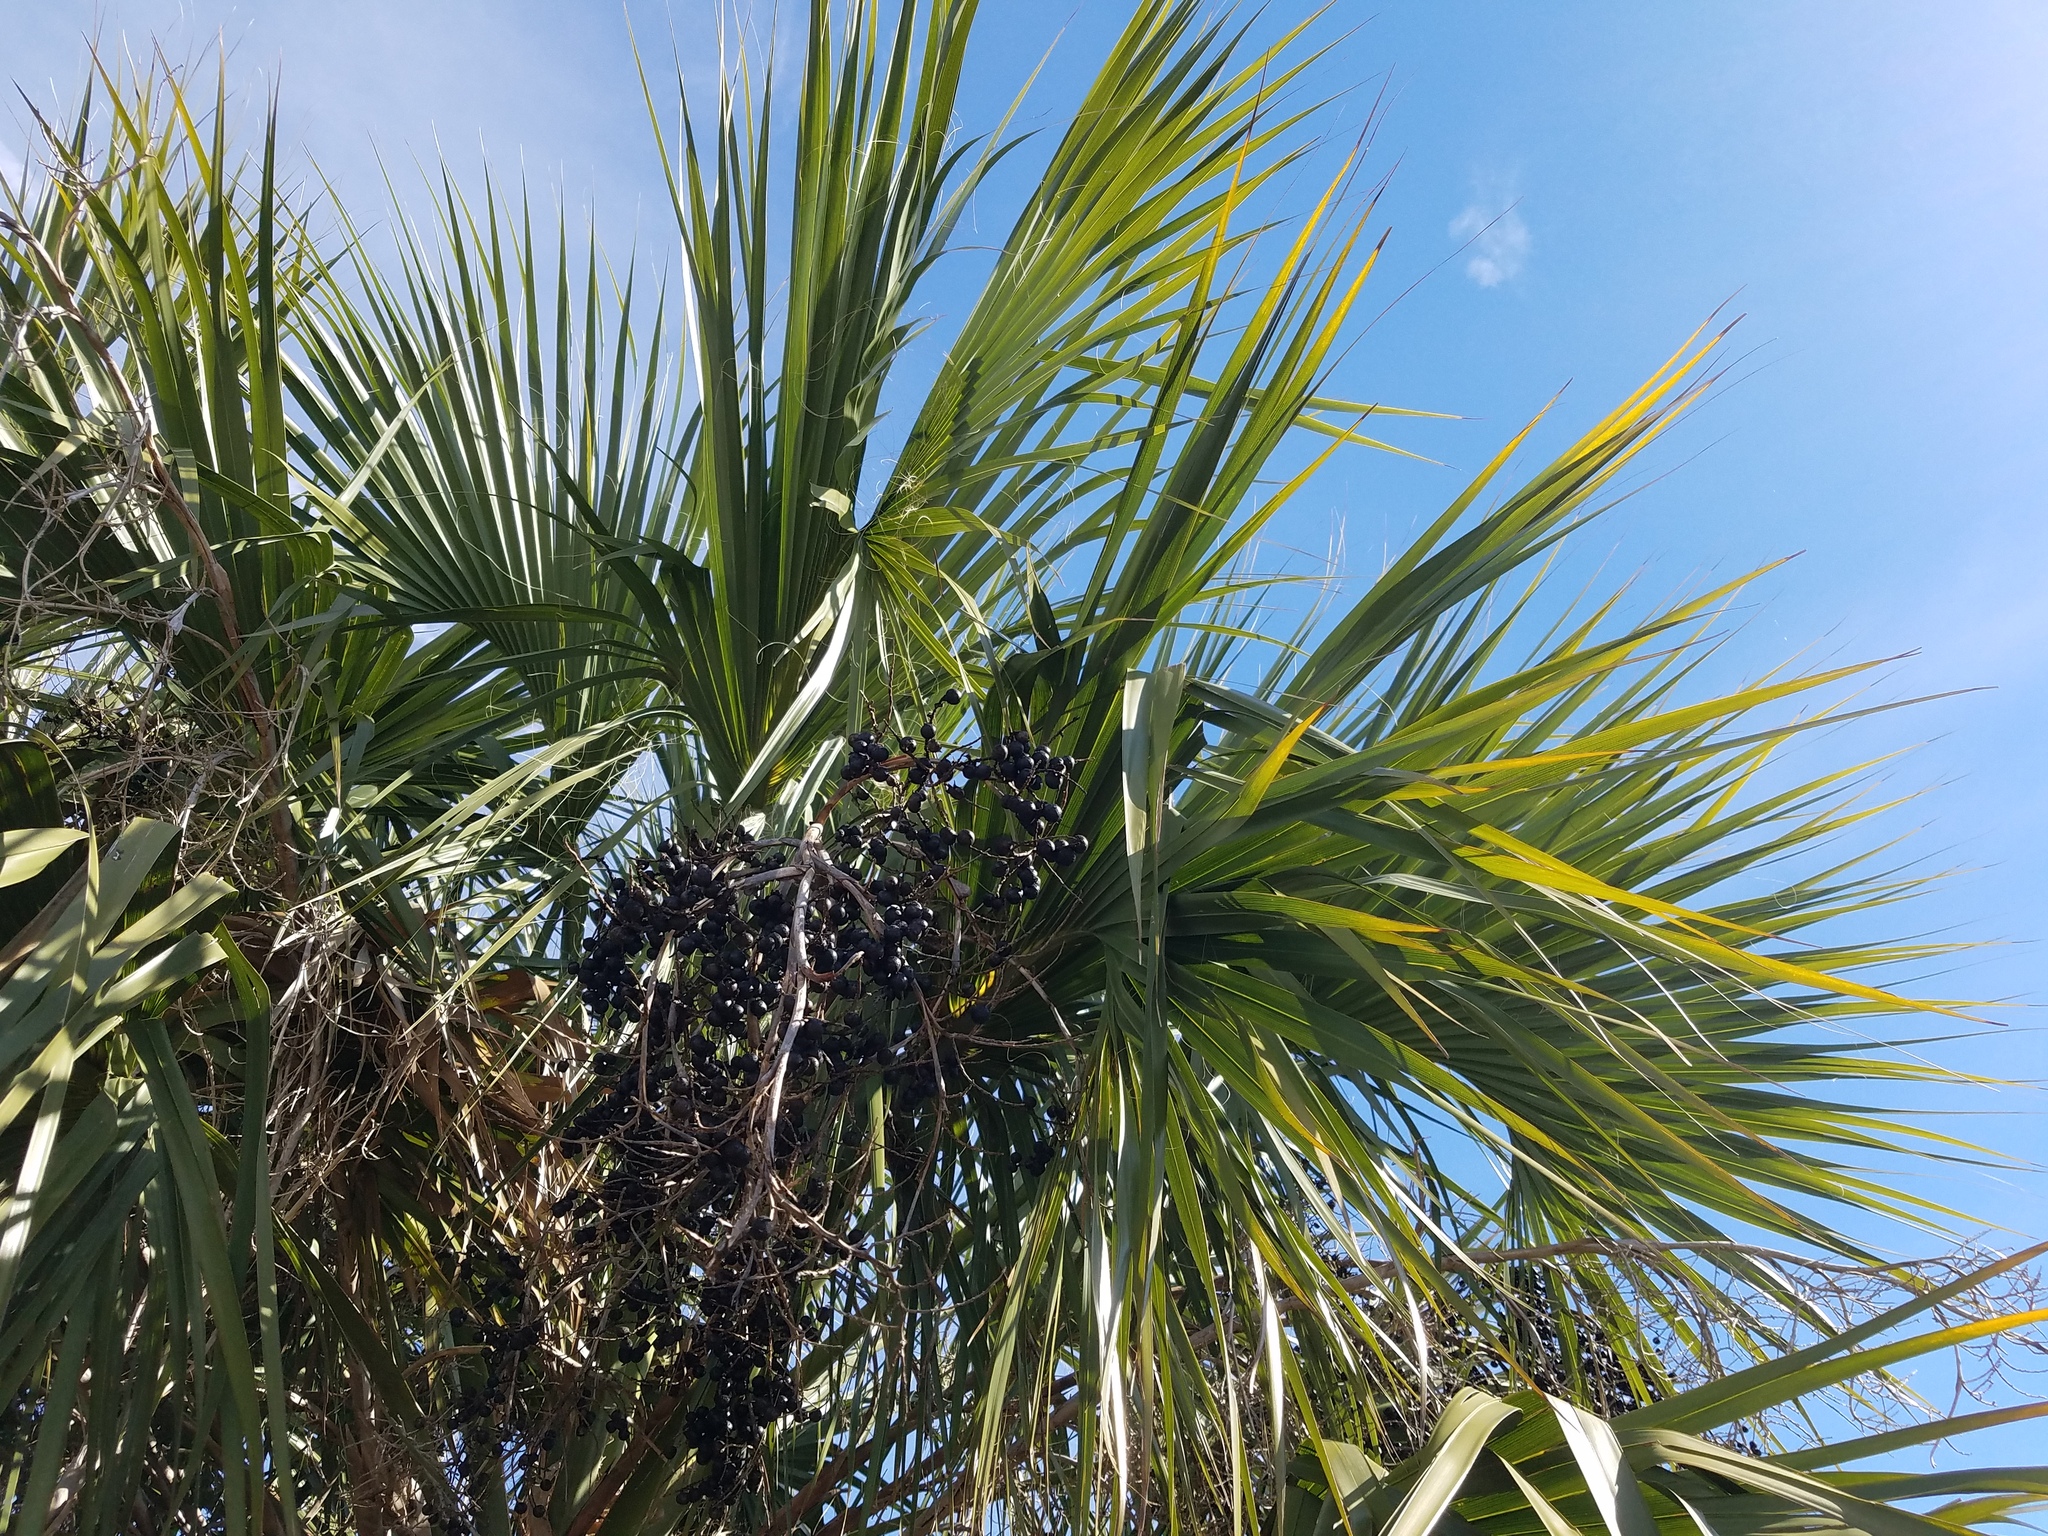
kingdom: Plantae
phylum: Tracheophyta
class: Liliopsida
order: Arecales
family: Arecaceae
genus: Sabal
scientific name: Sabal palmetto
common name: Blue palmetto
